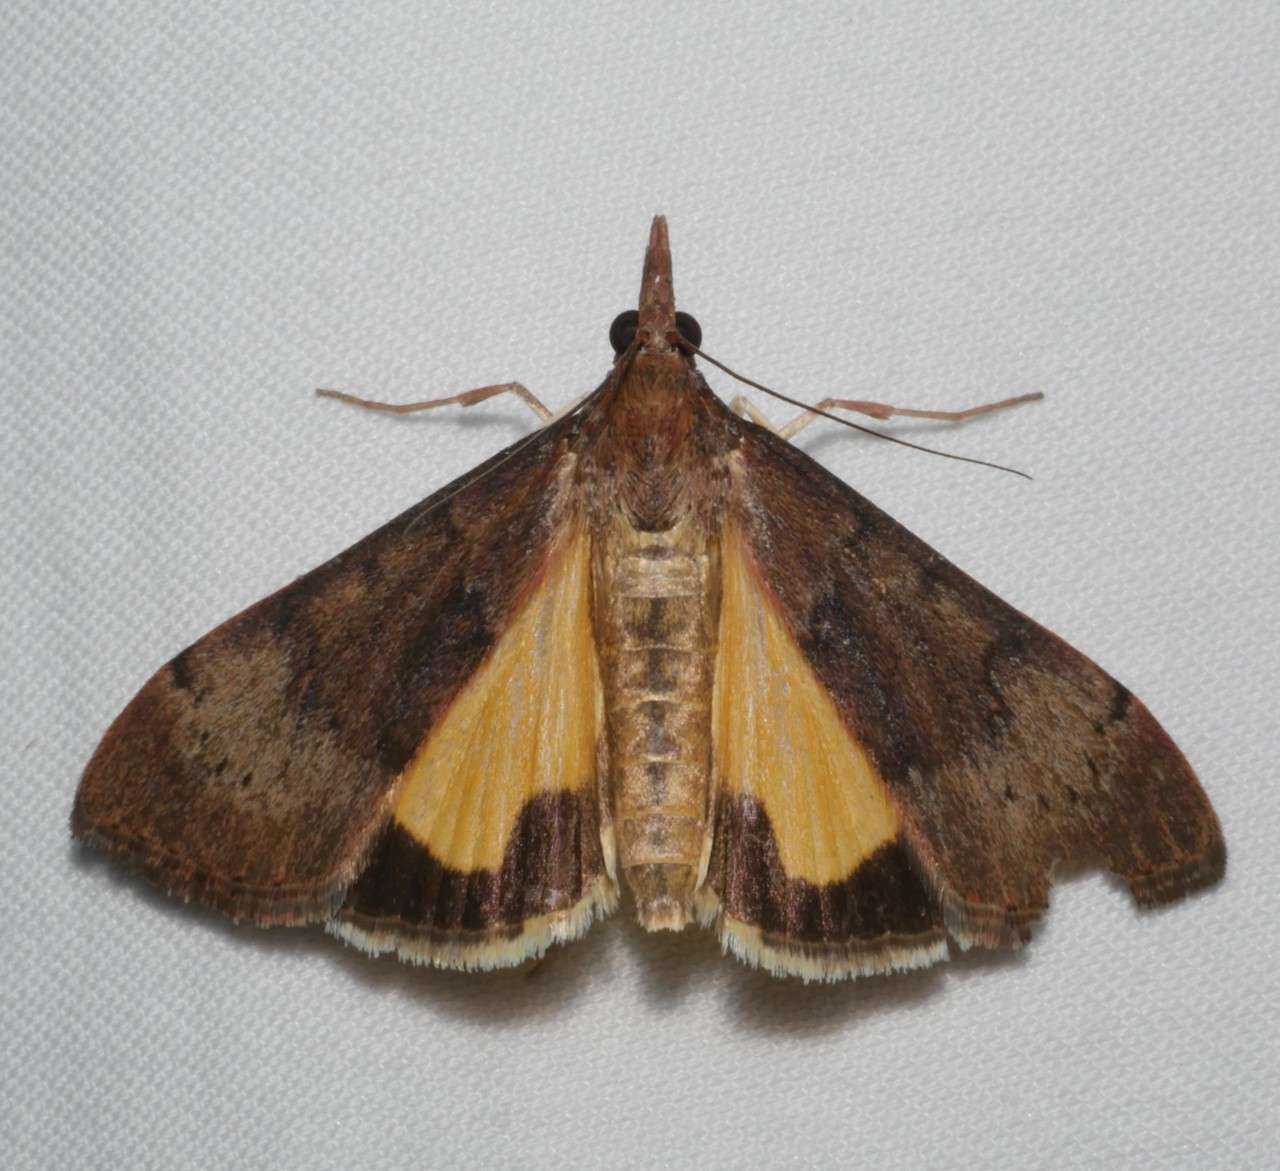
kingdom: Animalia
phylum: Arthropoda
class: Insecta
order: Lepidoptera
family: Crambidae
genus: Uresiphita
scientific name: Uresiphita ornithopteralis
